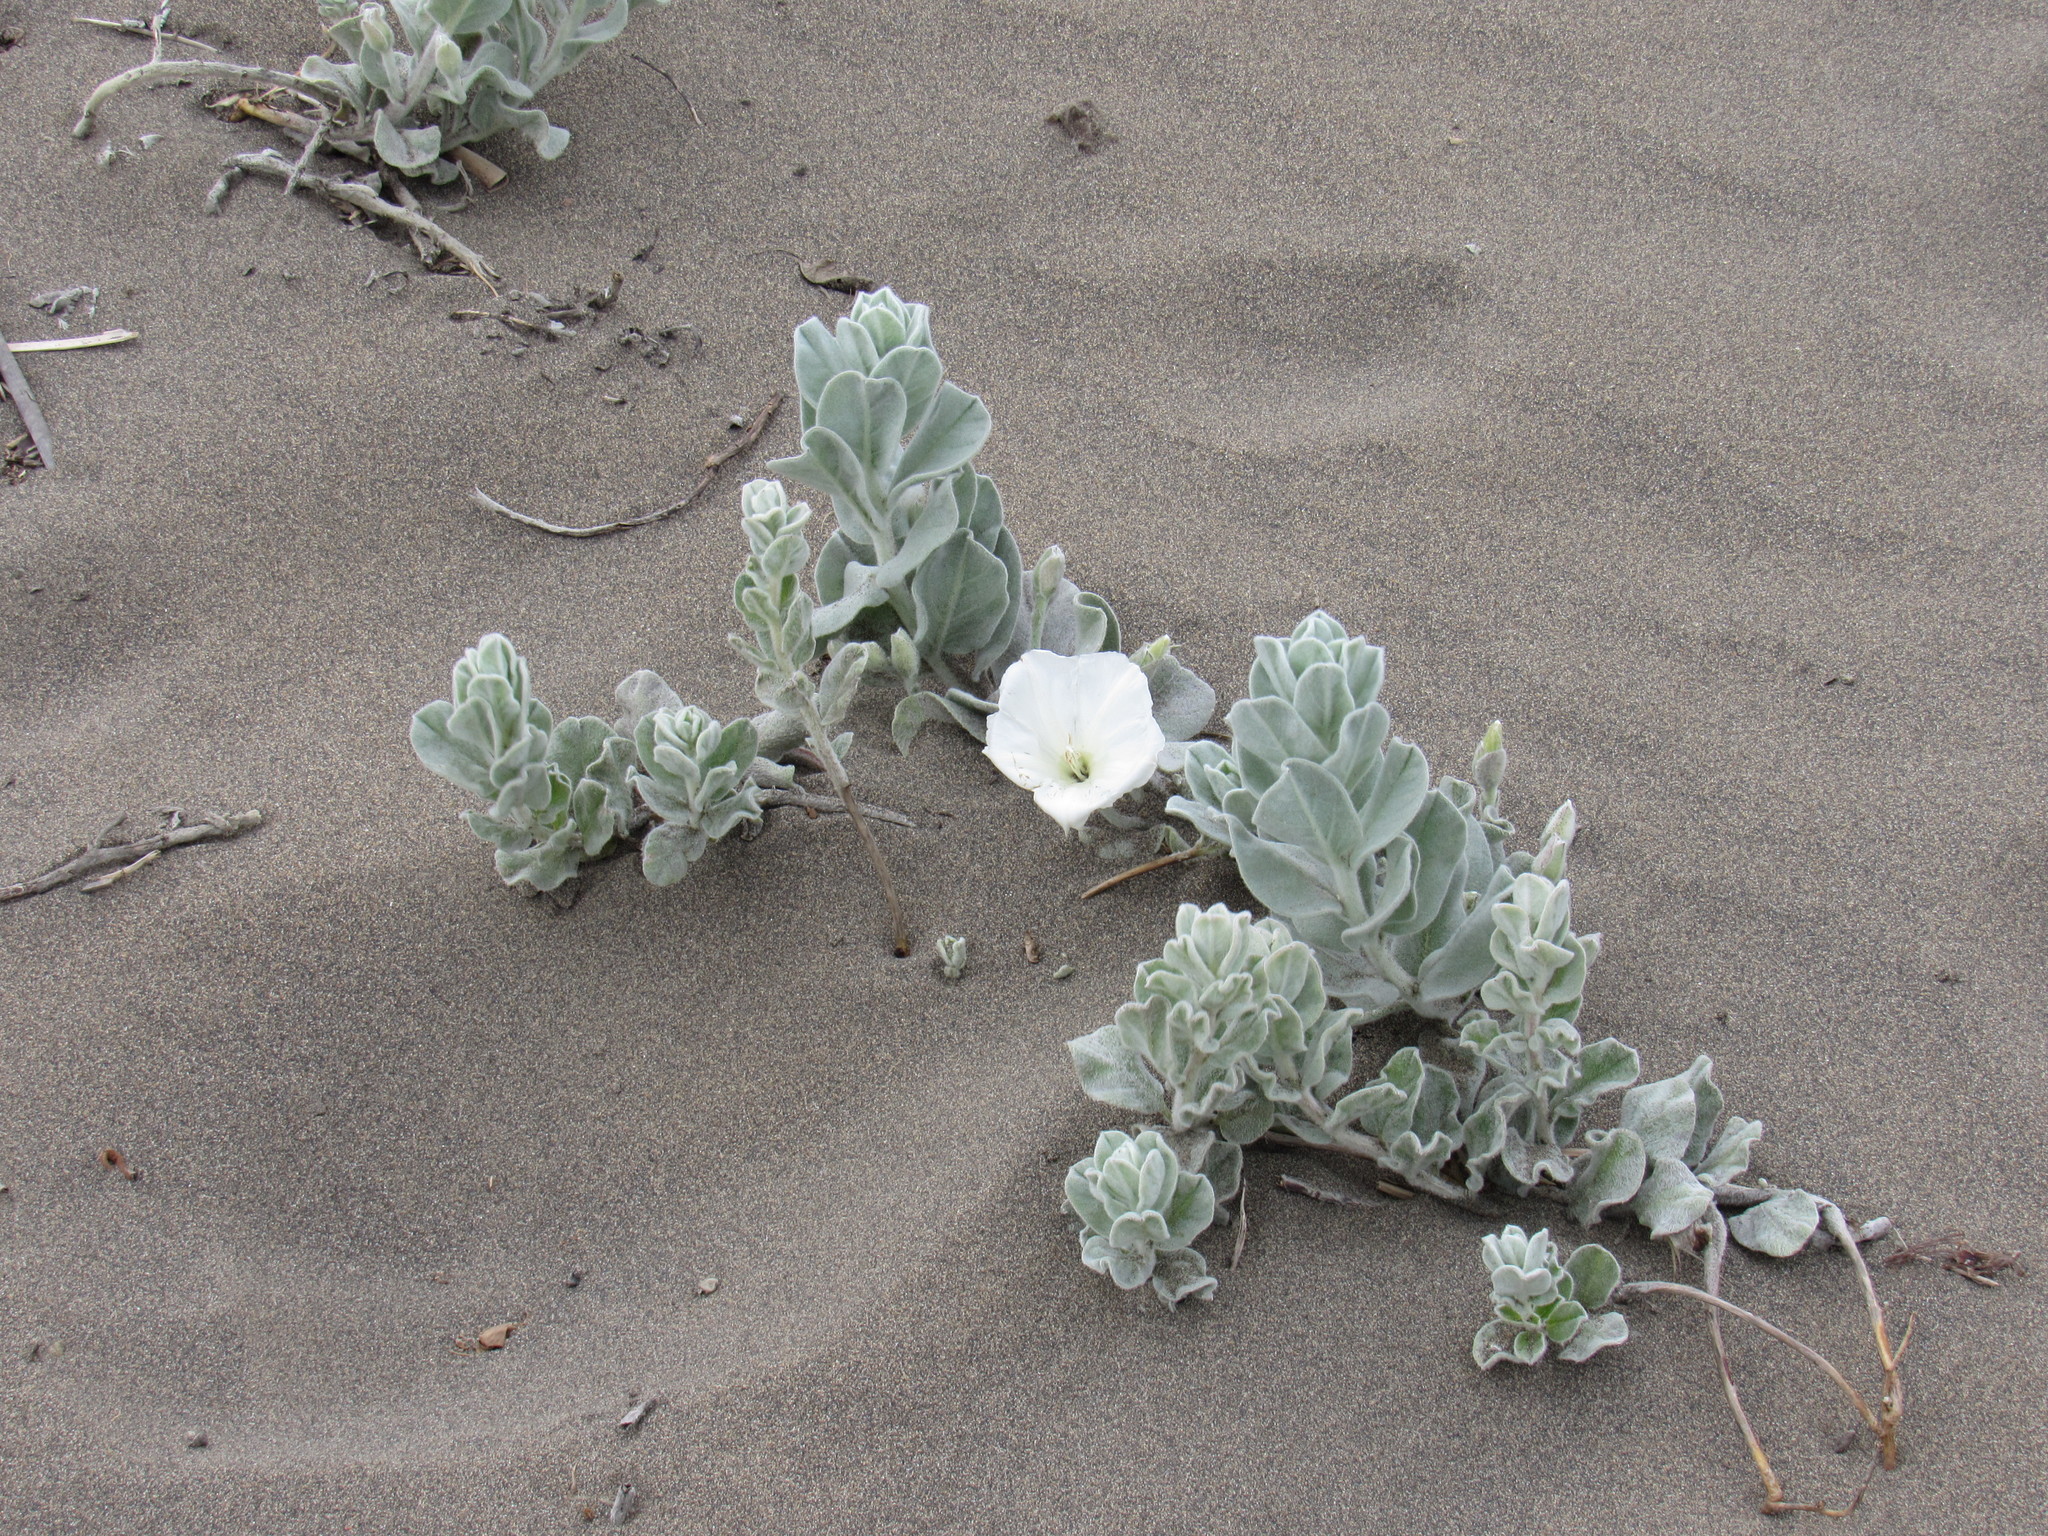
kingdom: Plantae
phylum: Tracheophyta
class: Magnoliopsida
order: Solanales
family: Convolvulaceae
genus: Convolvulus
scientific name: Convolvulus persicus
